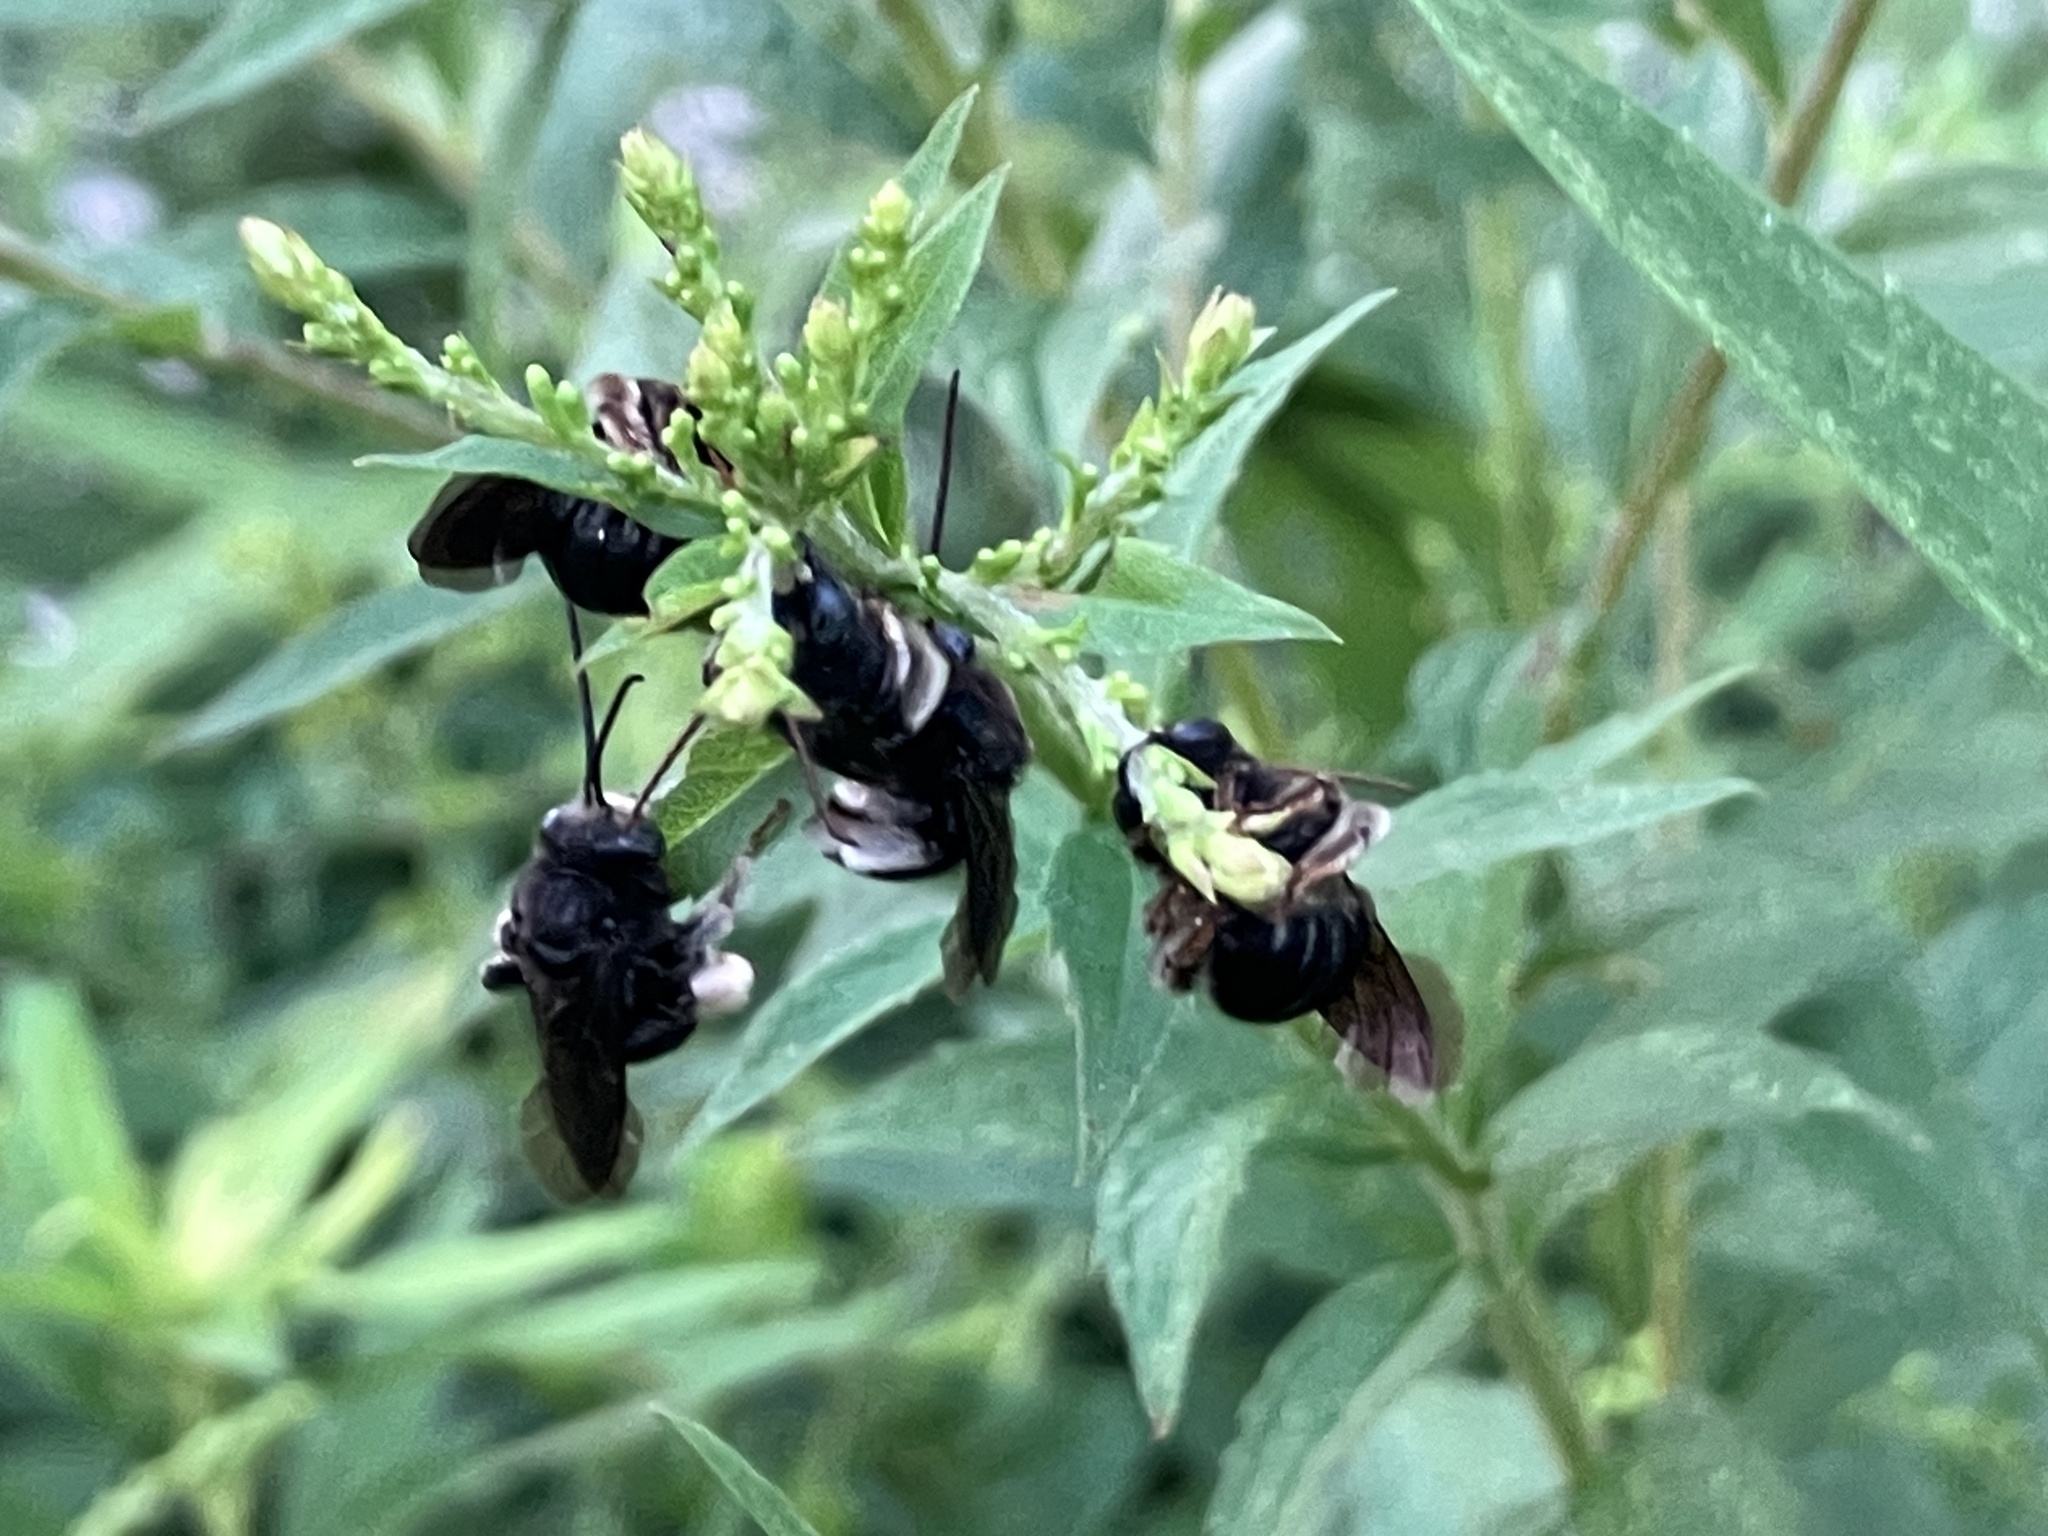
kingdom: Animalia
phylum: Arthropoda
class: Insecta
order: Hymenoptera
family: Apidae
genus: Melissodes
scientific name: Melissodes bimaculatus
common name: Two-spotted long-horned bee
